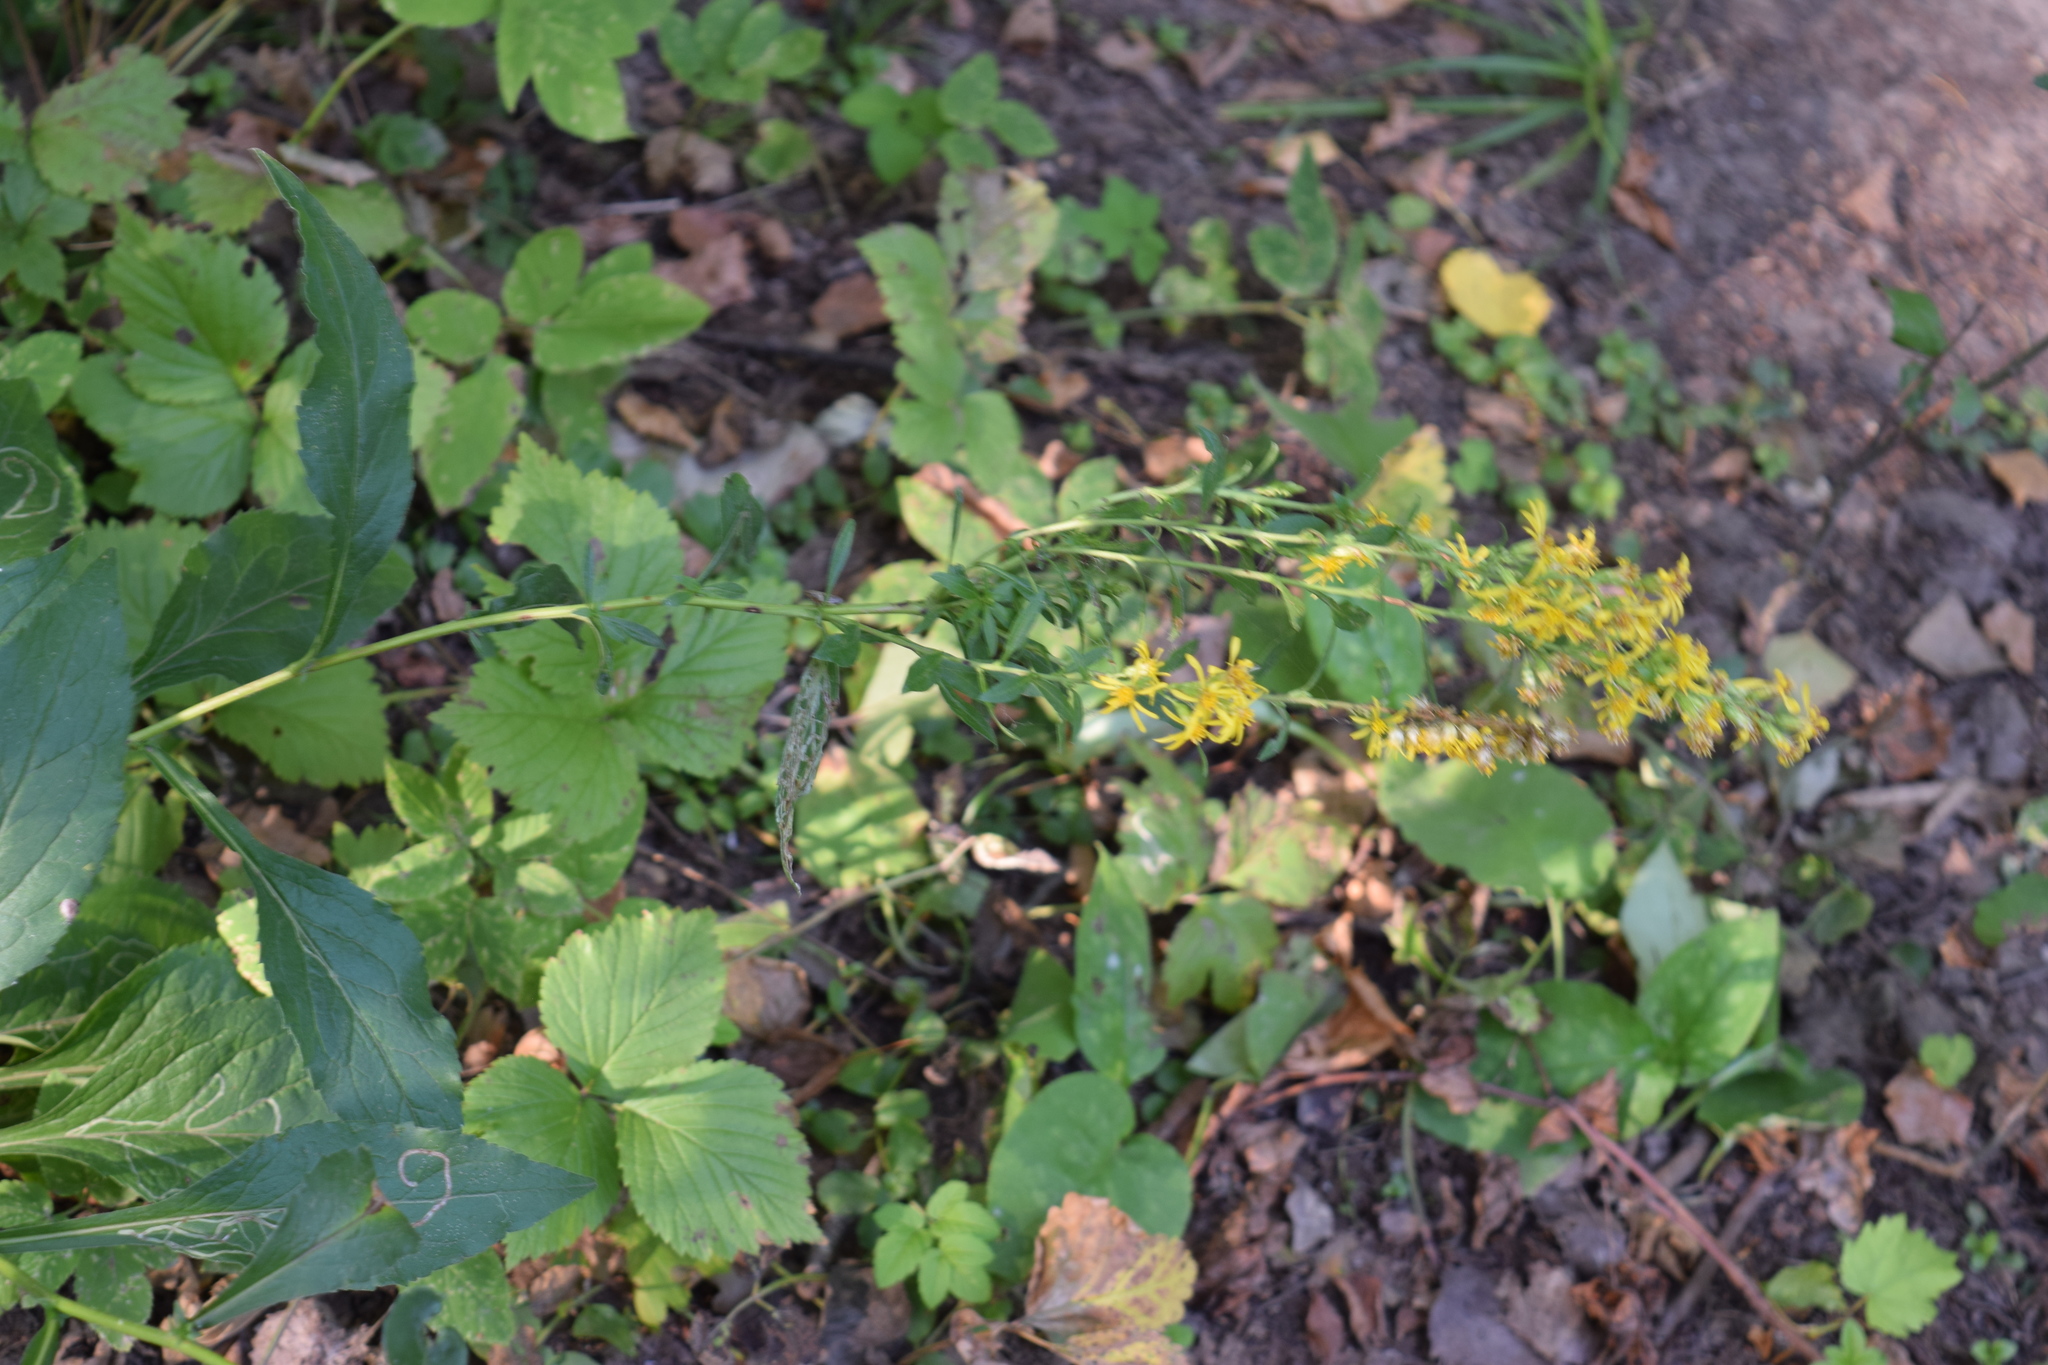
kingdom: Plantae
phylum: Tracheophyta
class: Magnoliopsida
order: Asterales
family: Asteraceae
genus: Solidago
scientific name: Solidago virgaurea
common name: Goldenrod
